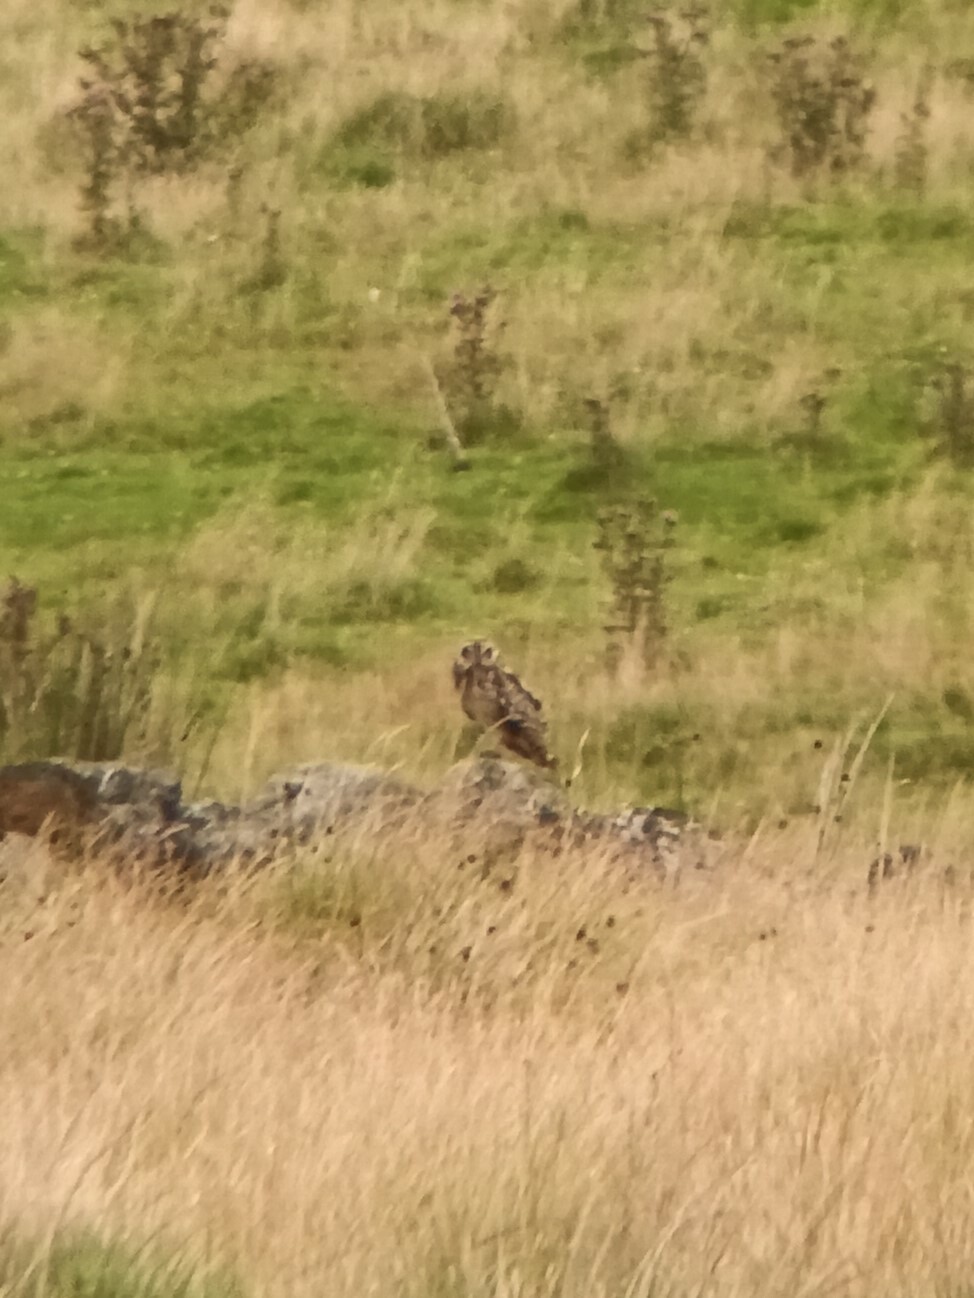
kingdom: Animalia
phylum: Chordata
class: Aves
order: Strigiformes
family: Strigidae
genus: Asio
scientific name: Asio flammeus
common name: Short-eared owl
